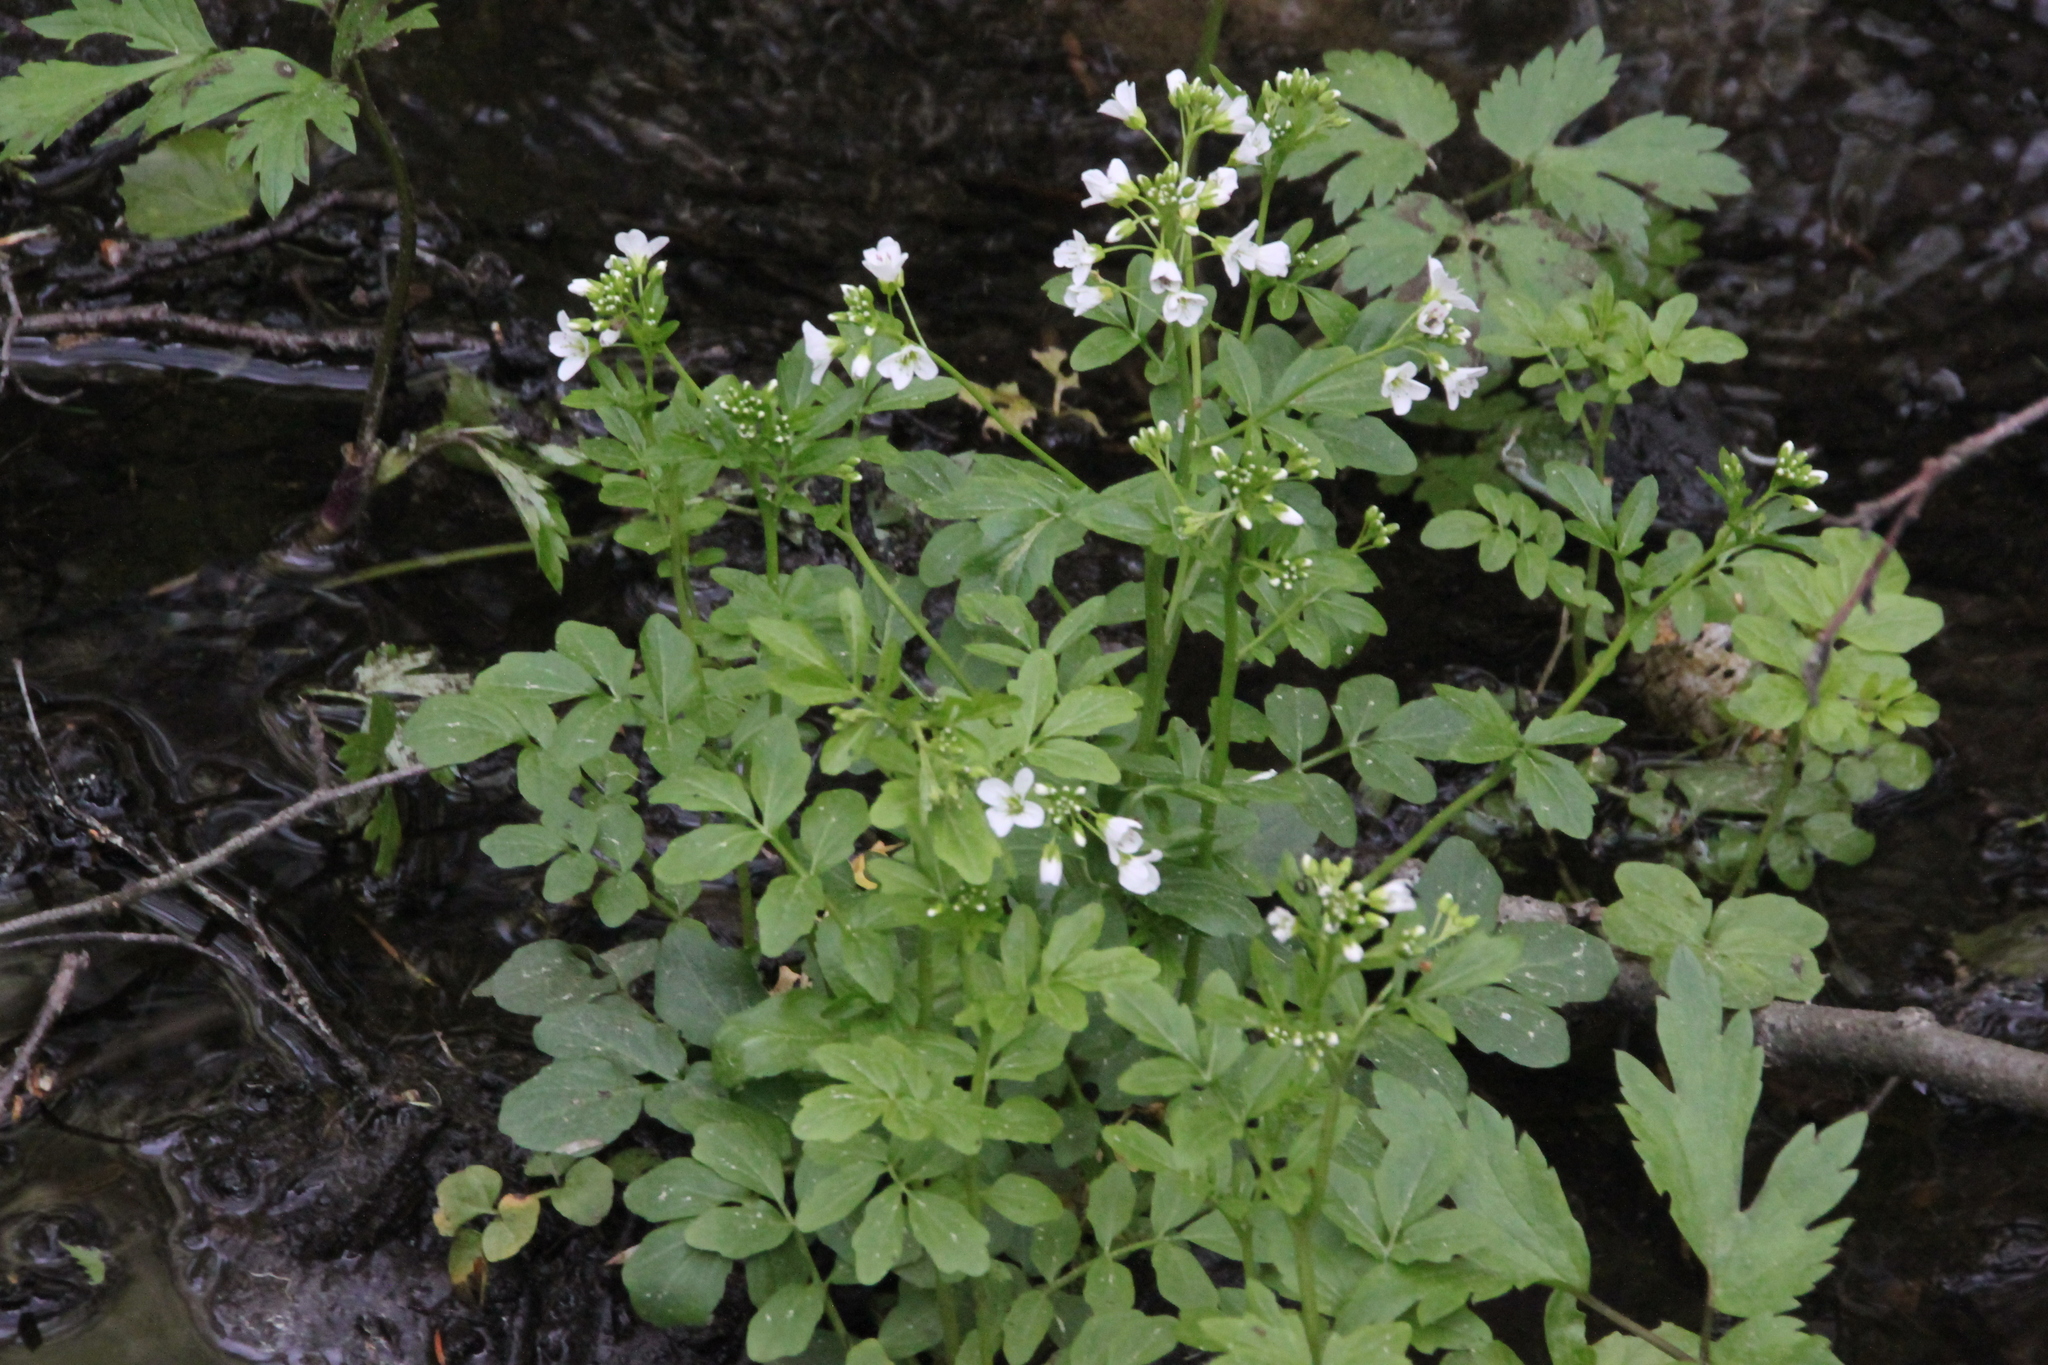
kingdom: Plantae
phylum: Tracheophyta
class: Magnoliopsida
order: Brassicales
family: Brassicaceae
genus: Cardamine
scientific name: Cardamine amara
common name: Large bitter-cress
